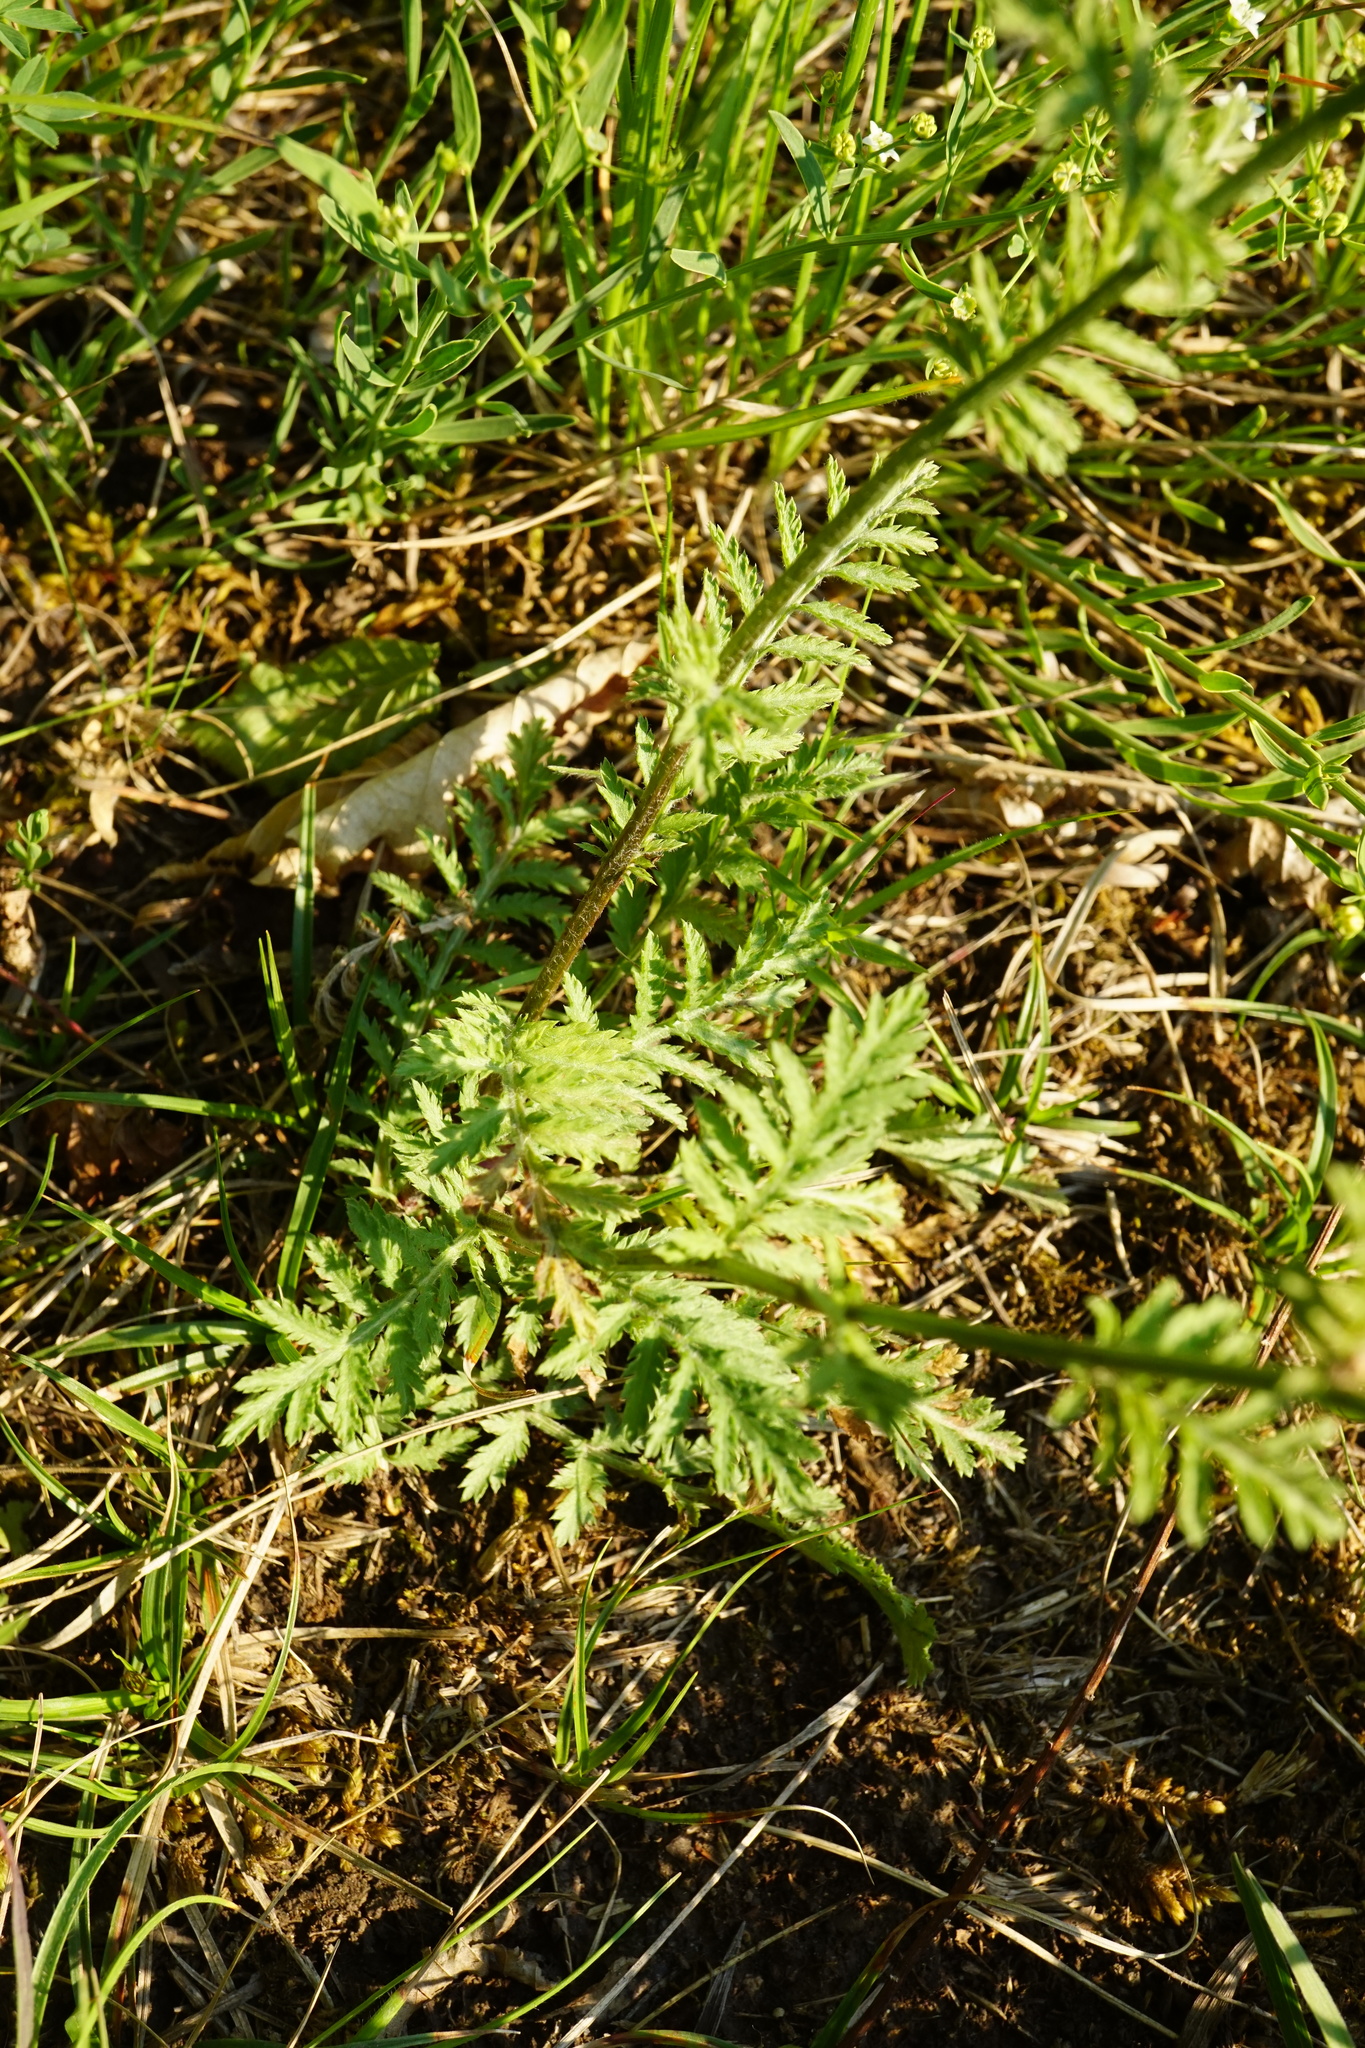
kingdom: Plantae
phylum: Tracheophyta
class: Magnoliopsida
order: Asterales
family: Asteraceae
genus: Tanacetum
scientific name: Tanacetum corymbosum
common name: Scentless feverfew
